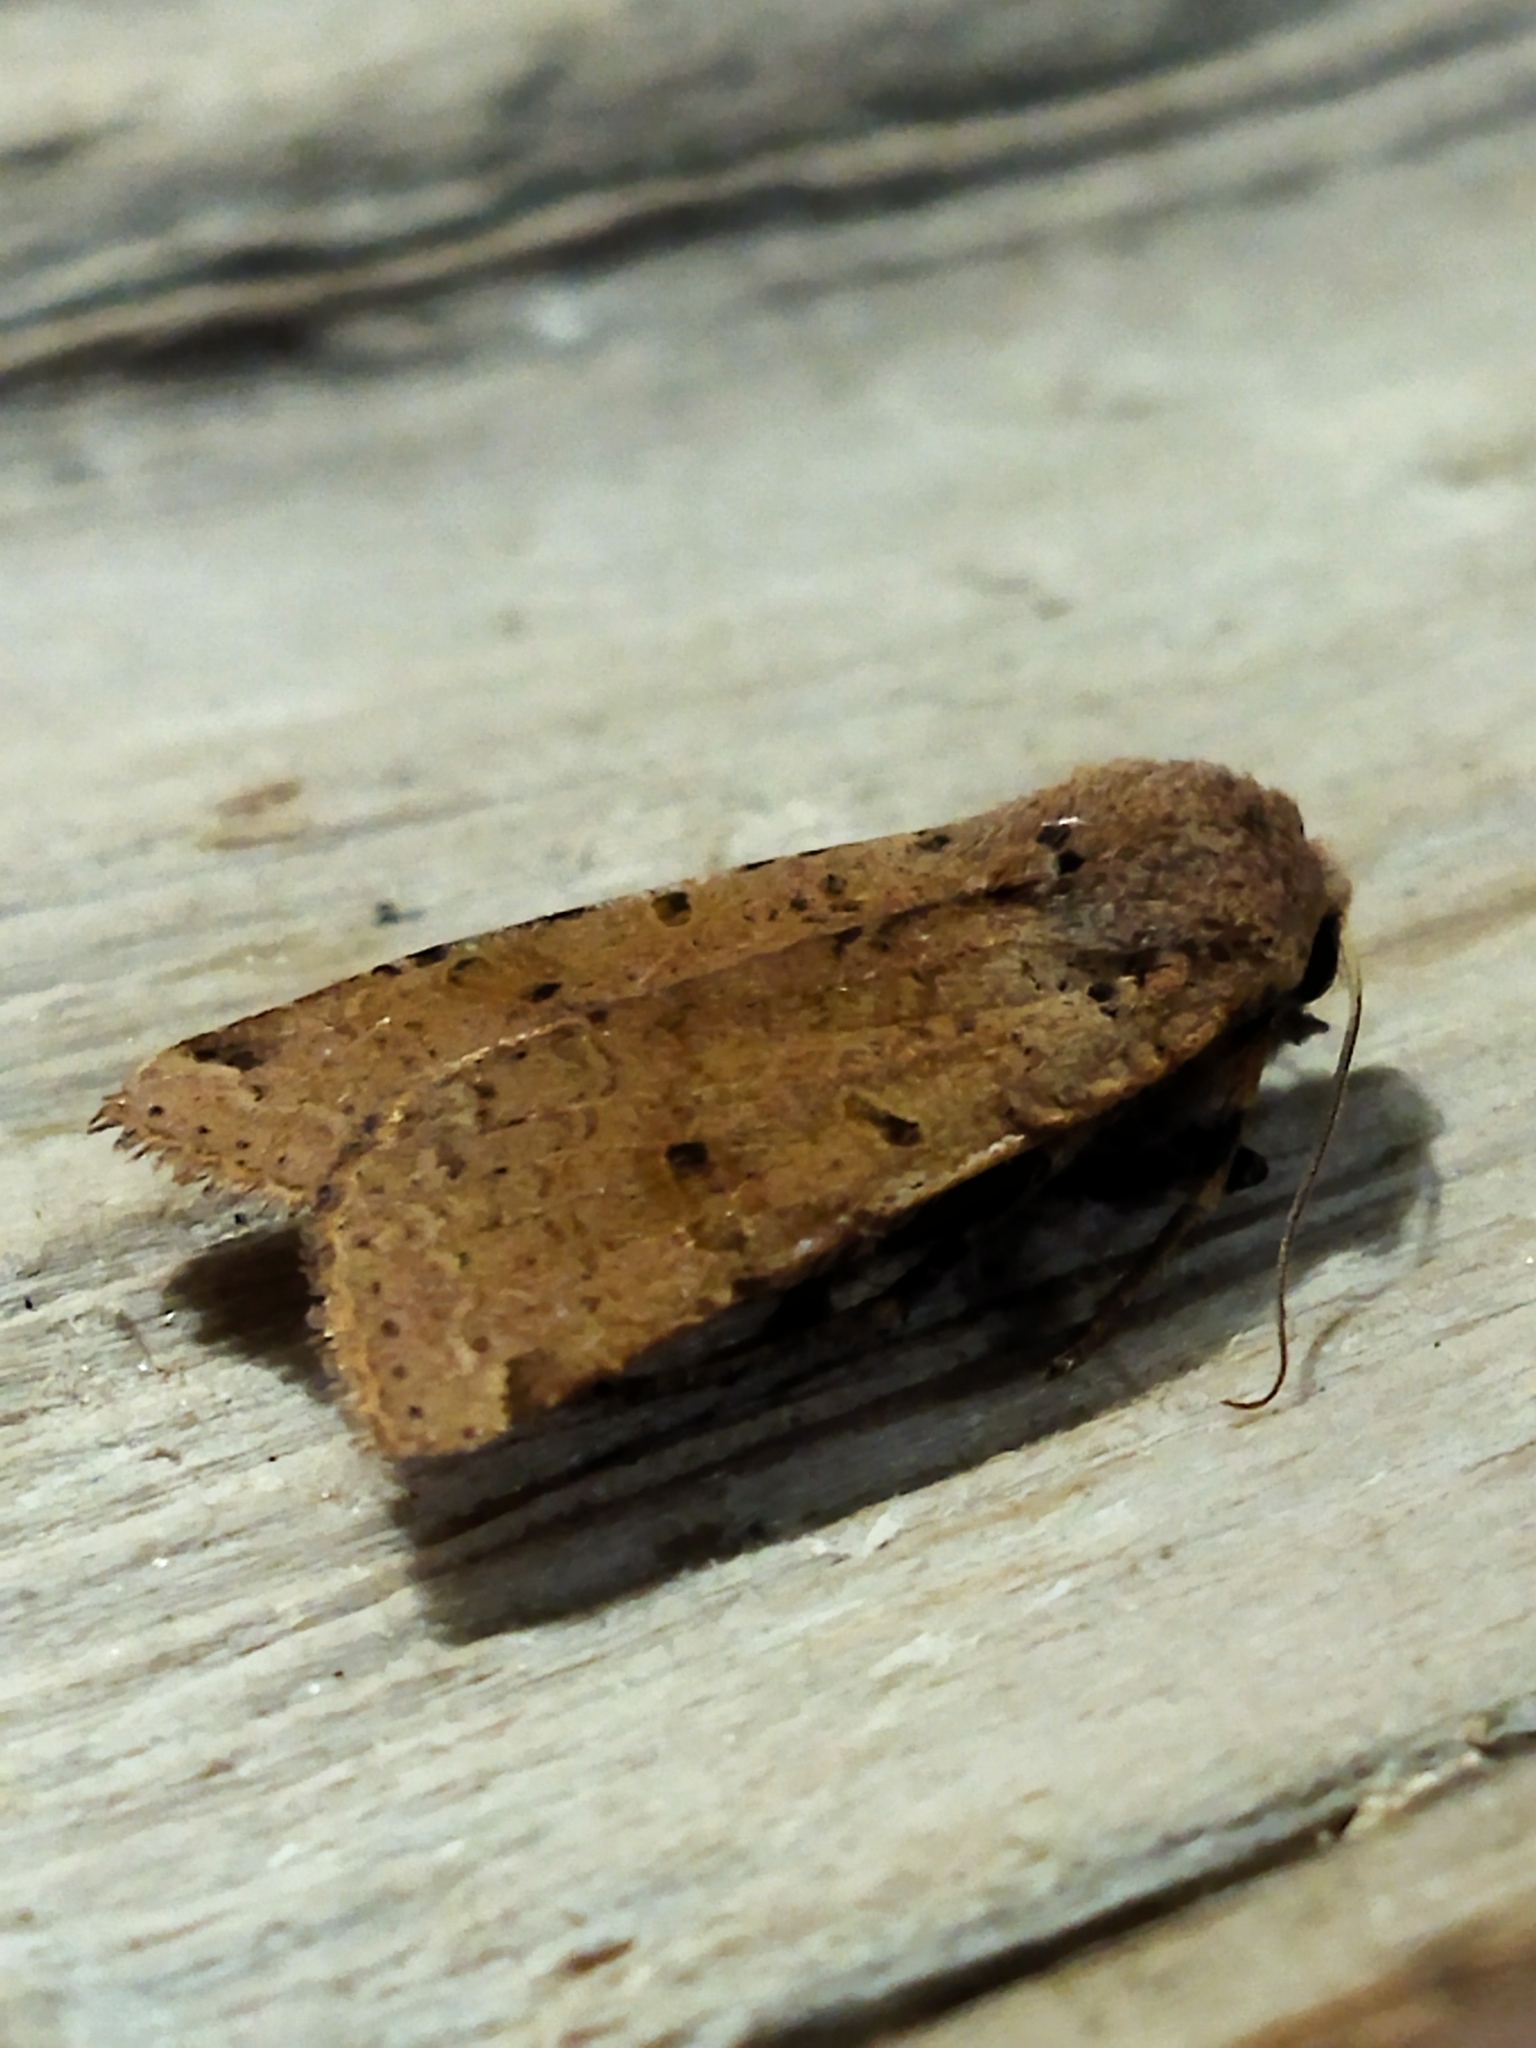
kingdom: Animalia
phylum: Arthropoda
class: Insecta
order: Lepidoptera
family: Noctuidae
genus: Agrochola
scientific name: Agrochola lychnidis
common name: Beaded chestnut
